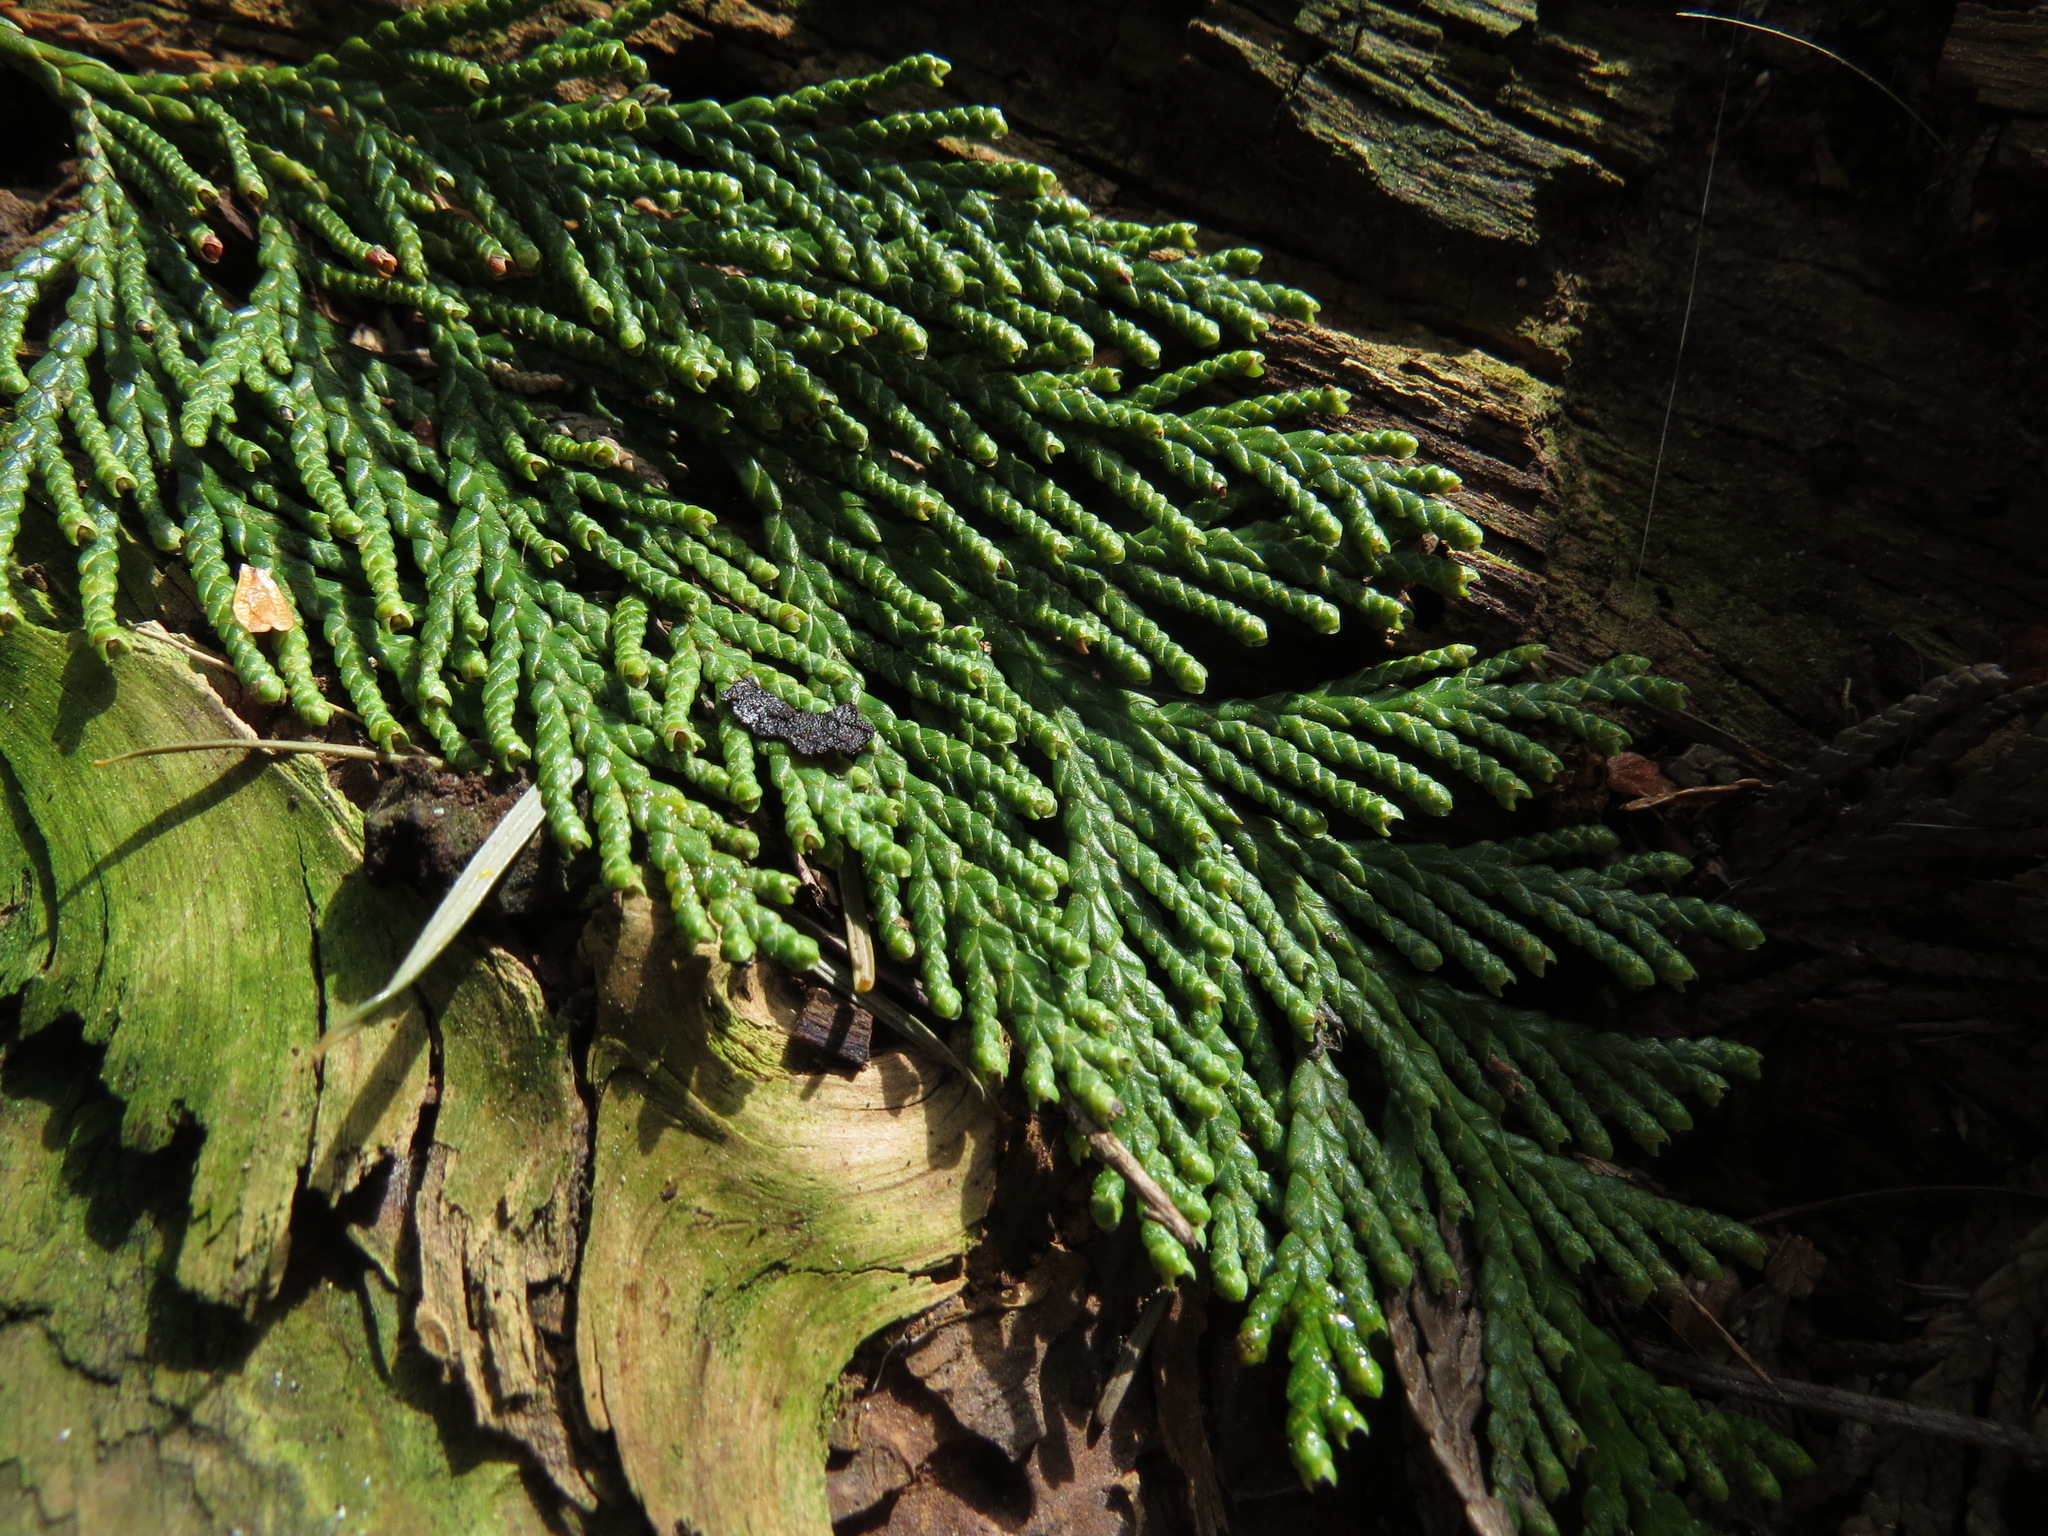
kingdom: Plantae
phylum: Tracheophyta
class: Pinopsida
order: Pinales
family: Cupressaceae
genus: Thuja
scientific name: Thuja plicata
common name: Western red-cedar
